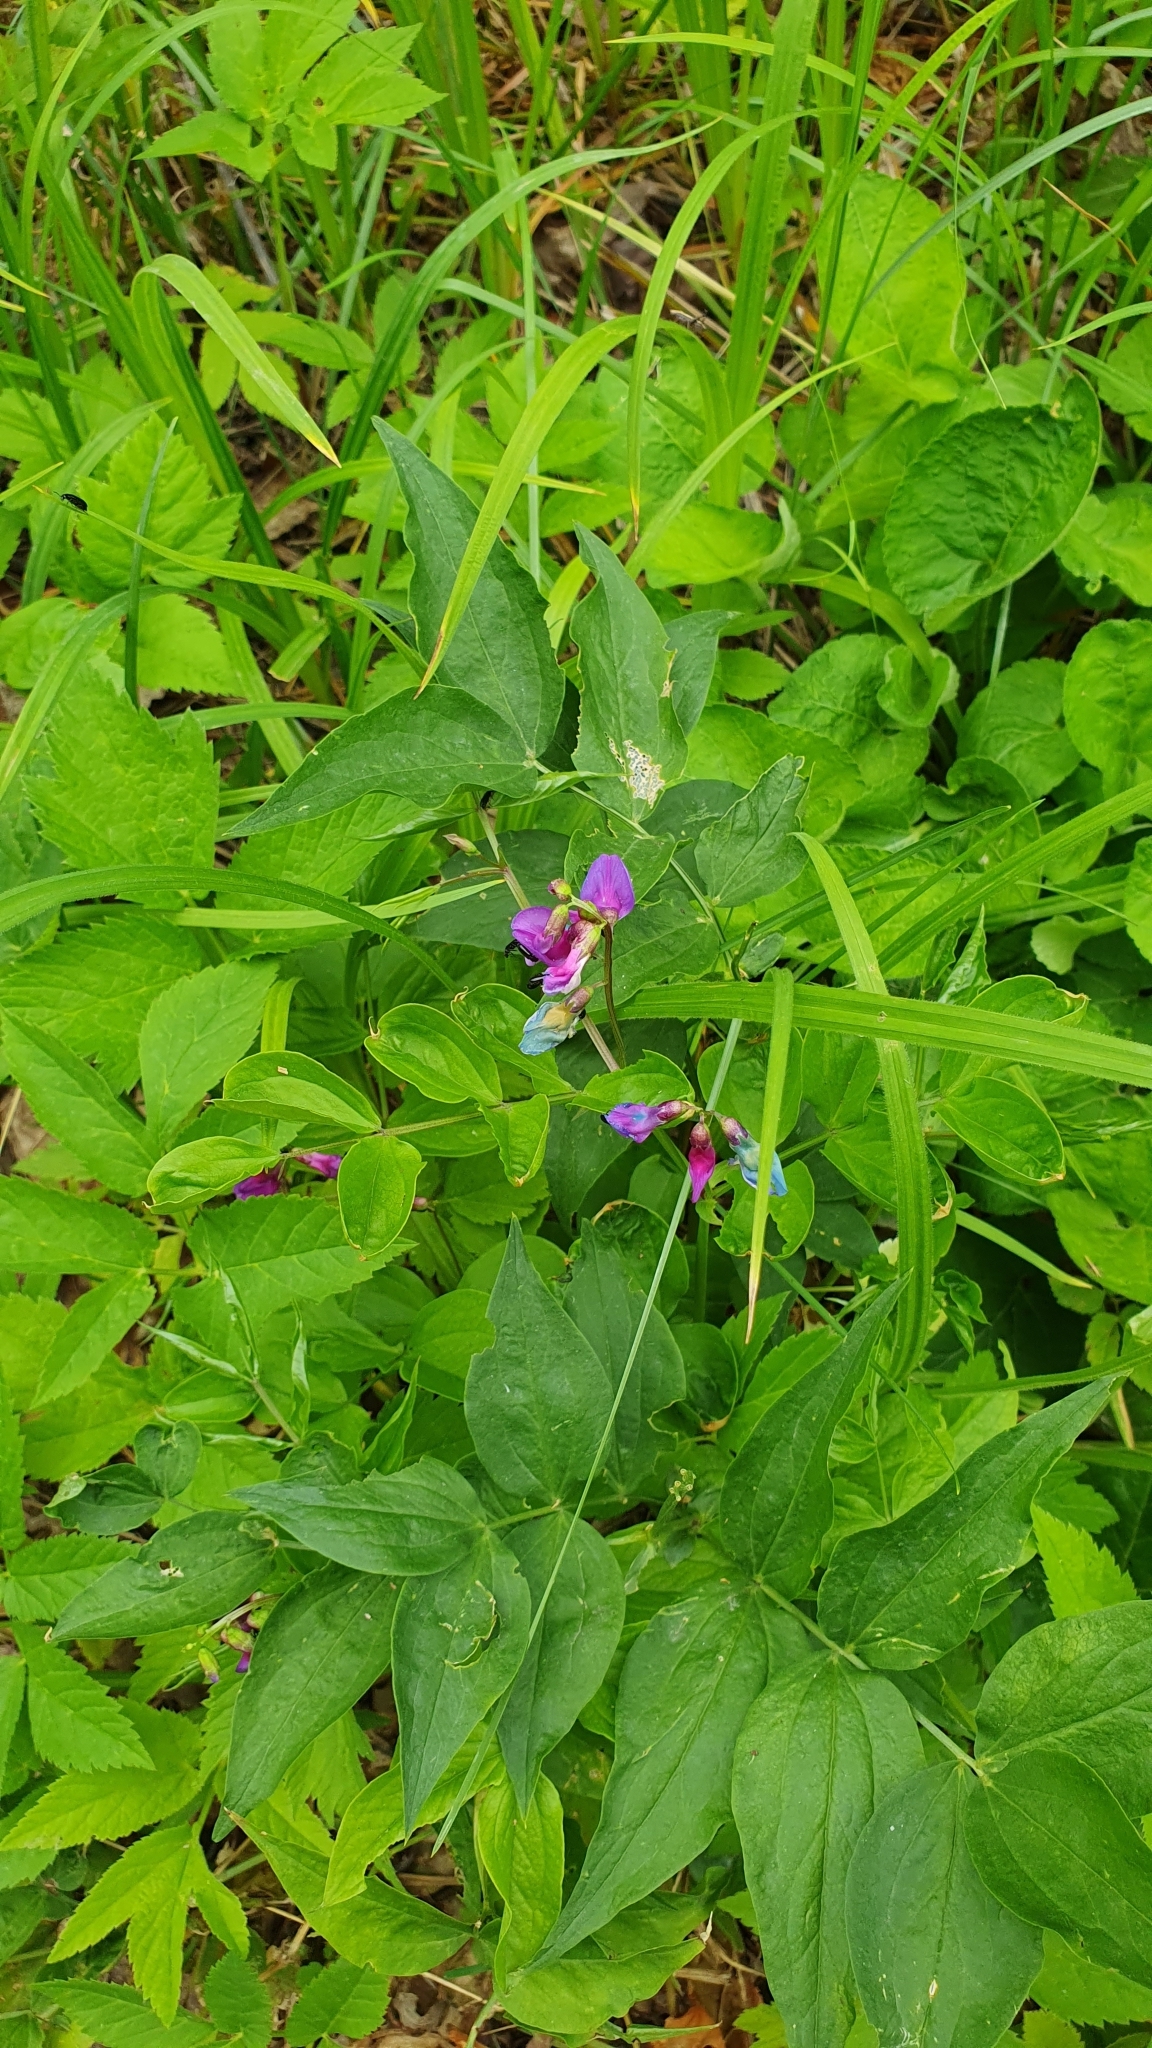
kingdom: Plantae
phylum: Tracheophyta
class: Magnoliopsida
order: Fabales
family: Fabaceae
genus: Lathyrus
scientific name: Lathyrus vernus
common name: Spring pea
